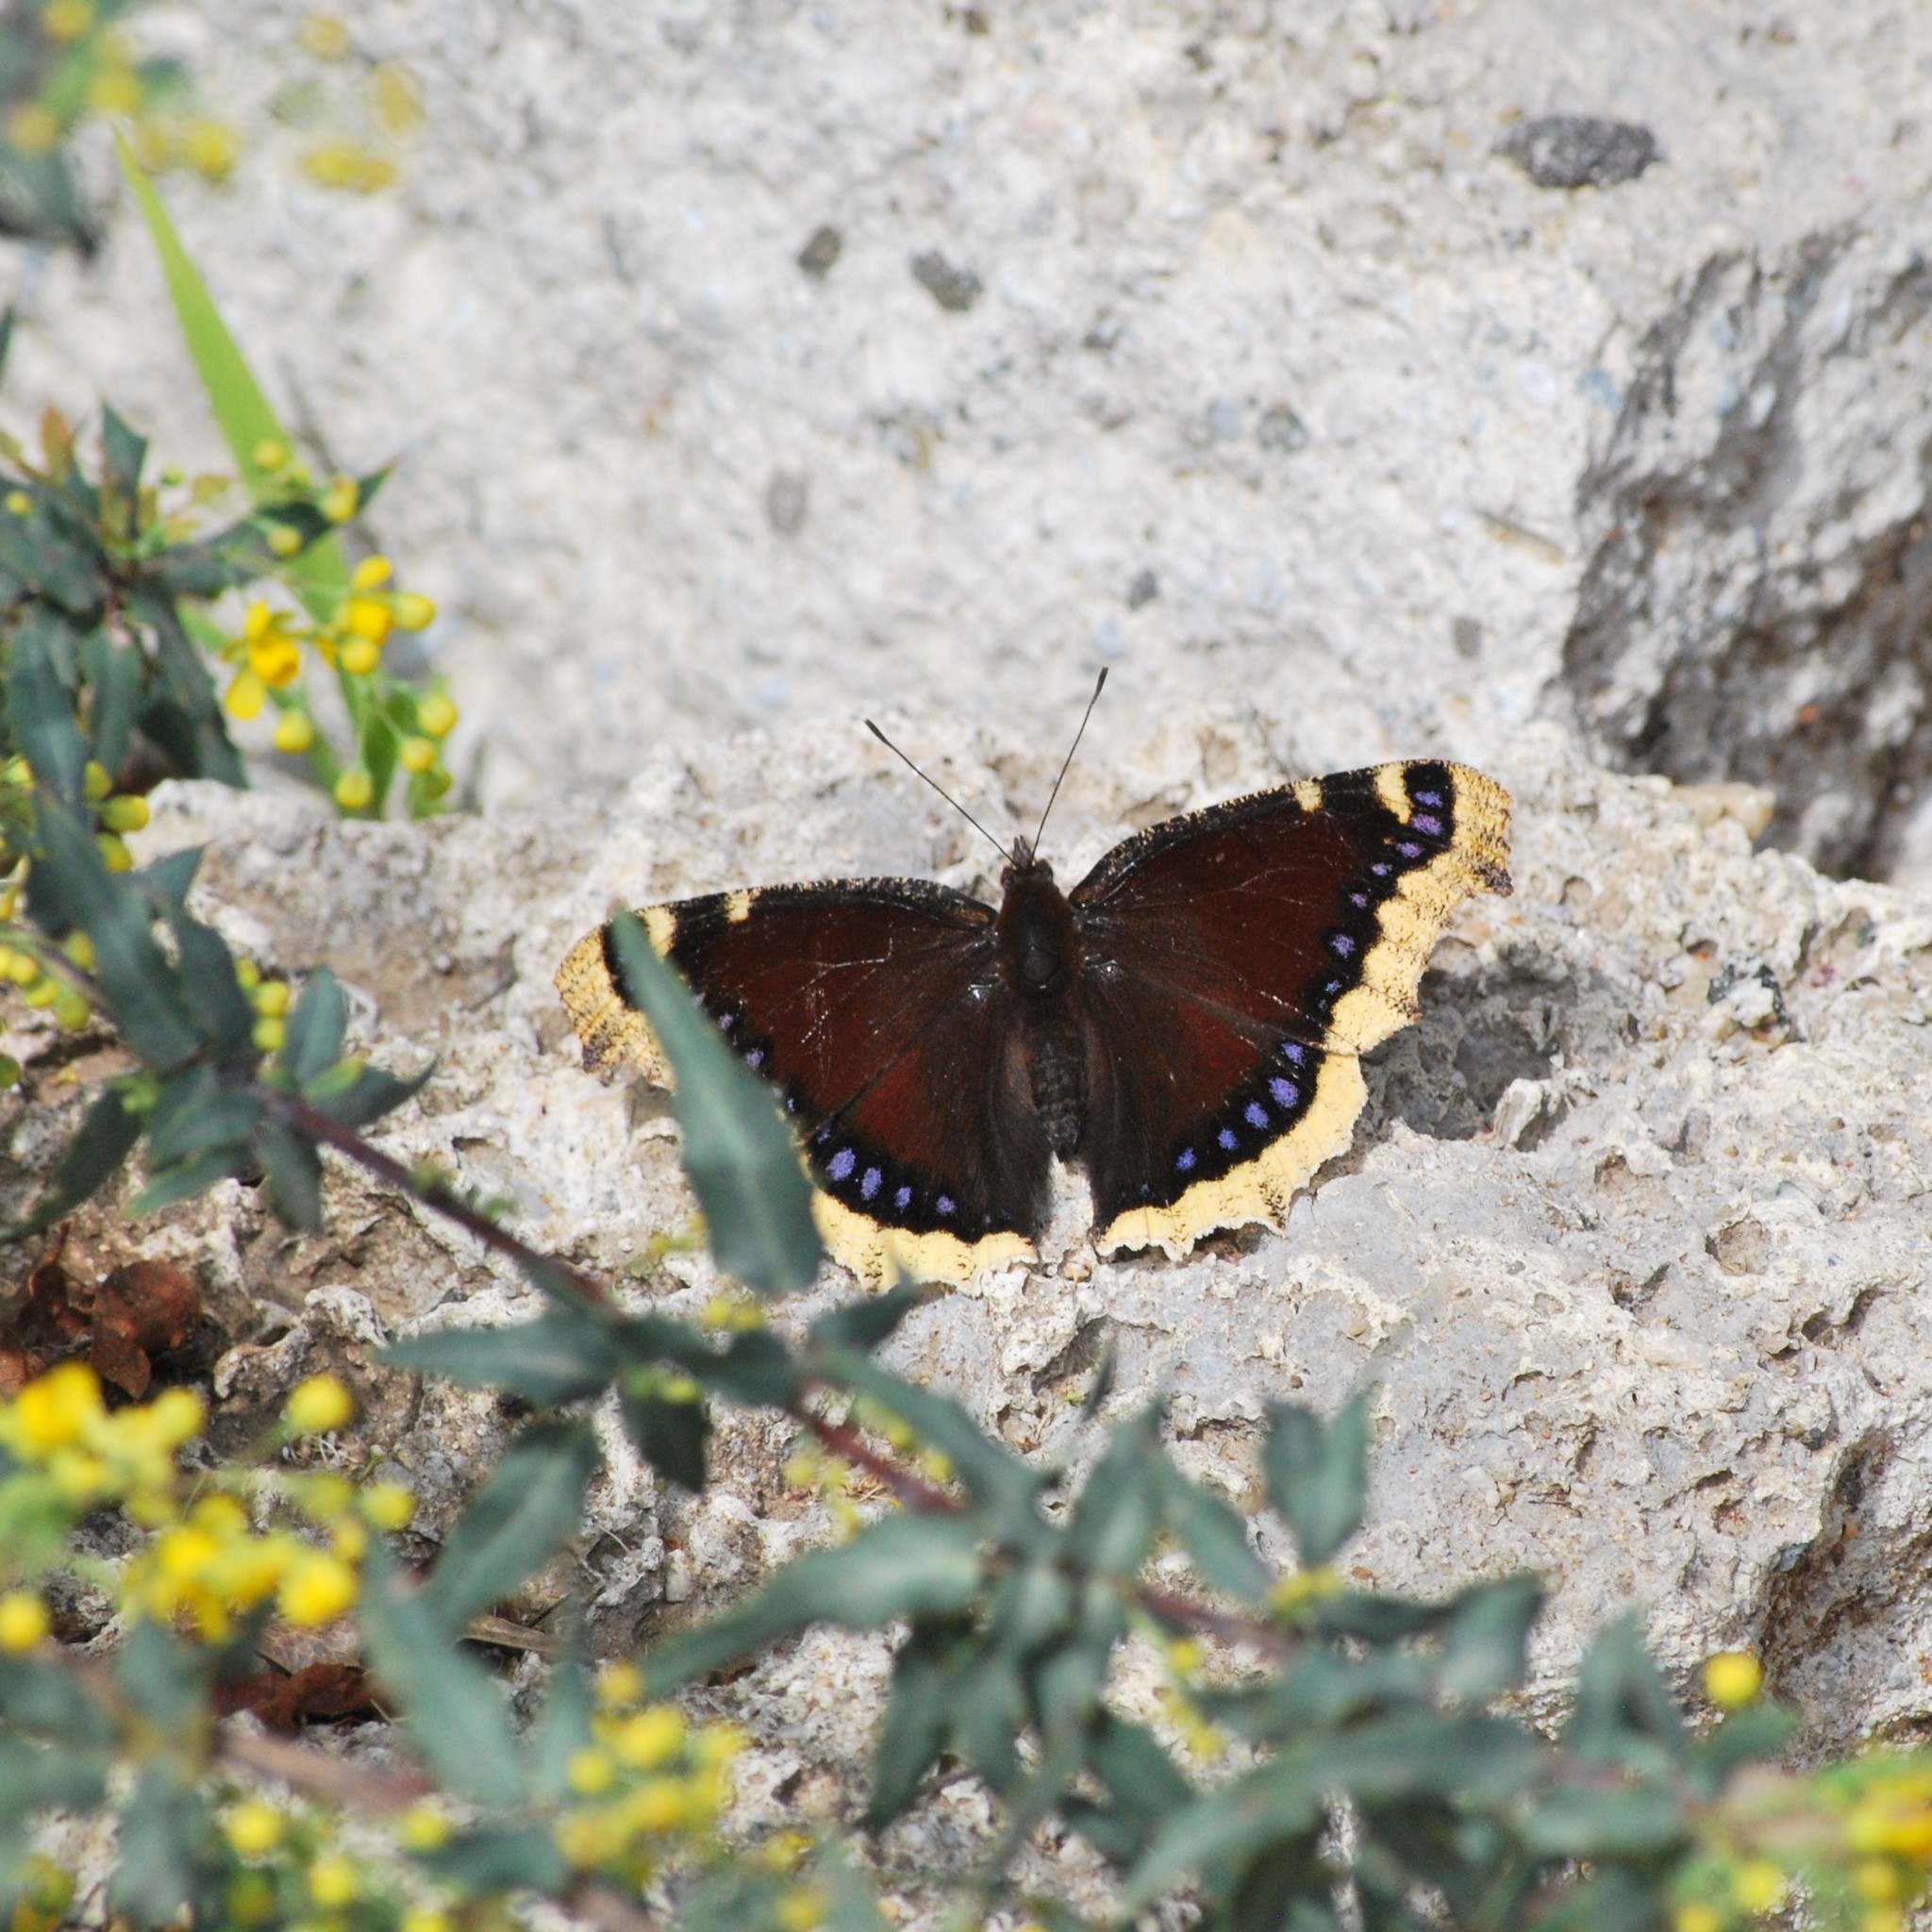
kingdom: Animalia
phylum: Arthropoda
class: Insecta
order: Lepidoptera
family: Nymphalidae
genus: Nymphalis
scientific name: Nymphalis antiopa
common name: Camberwell beauty
